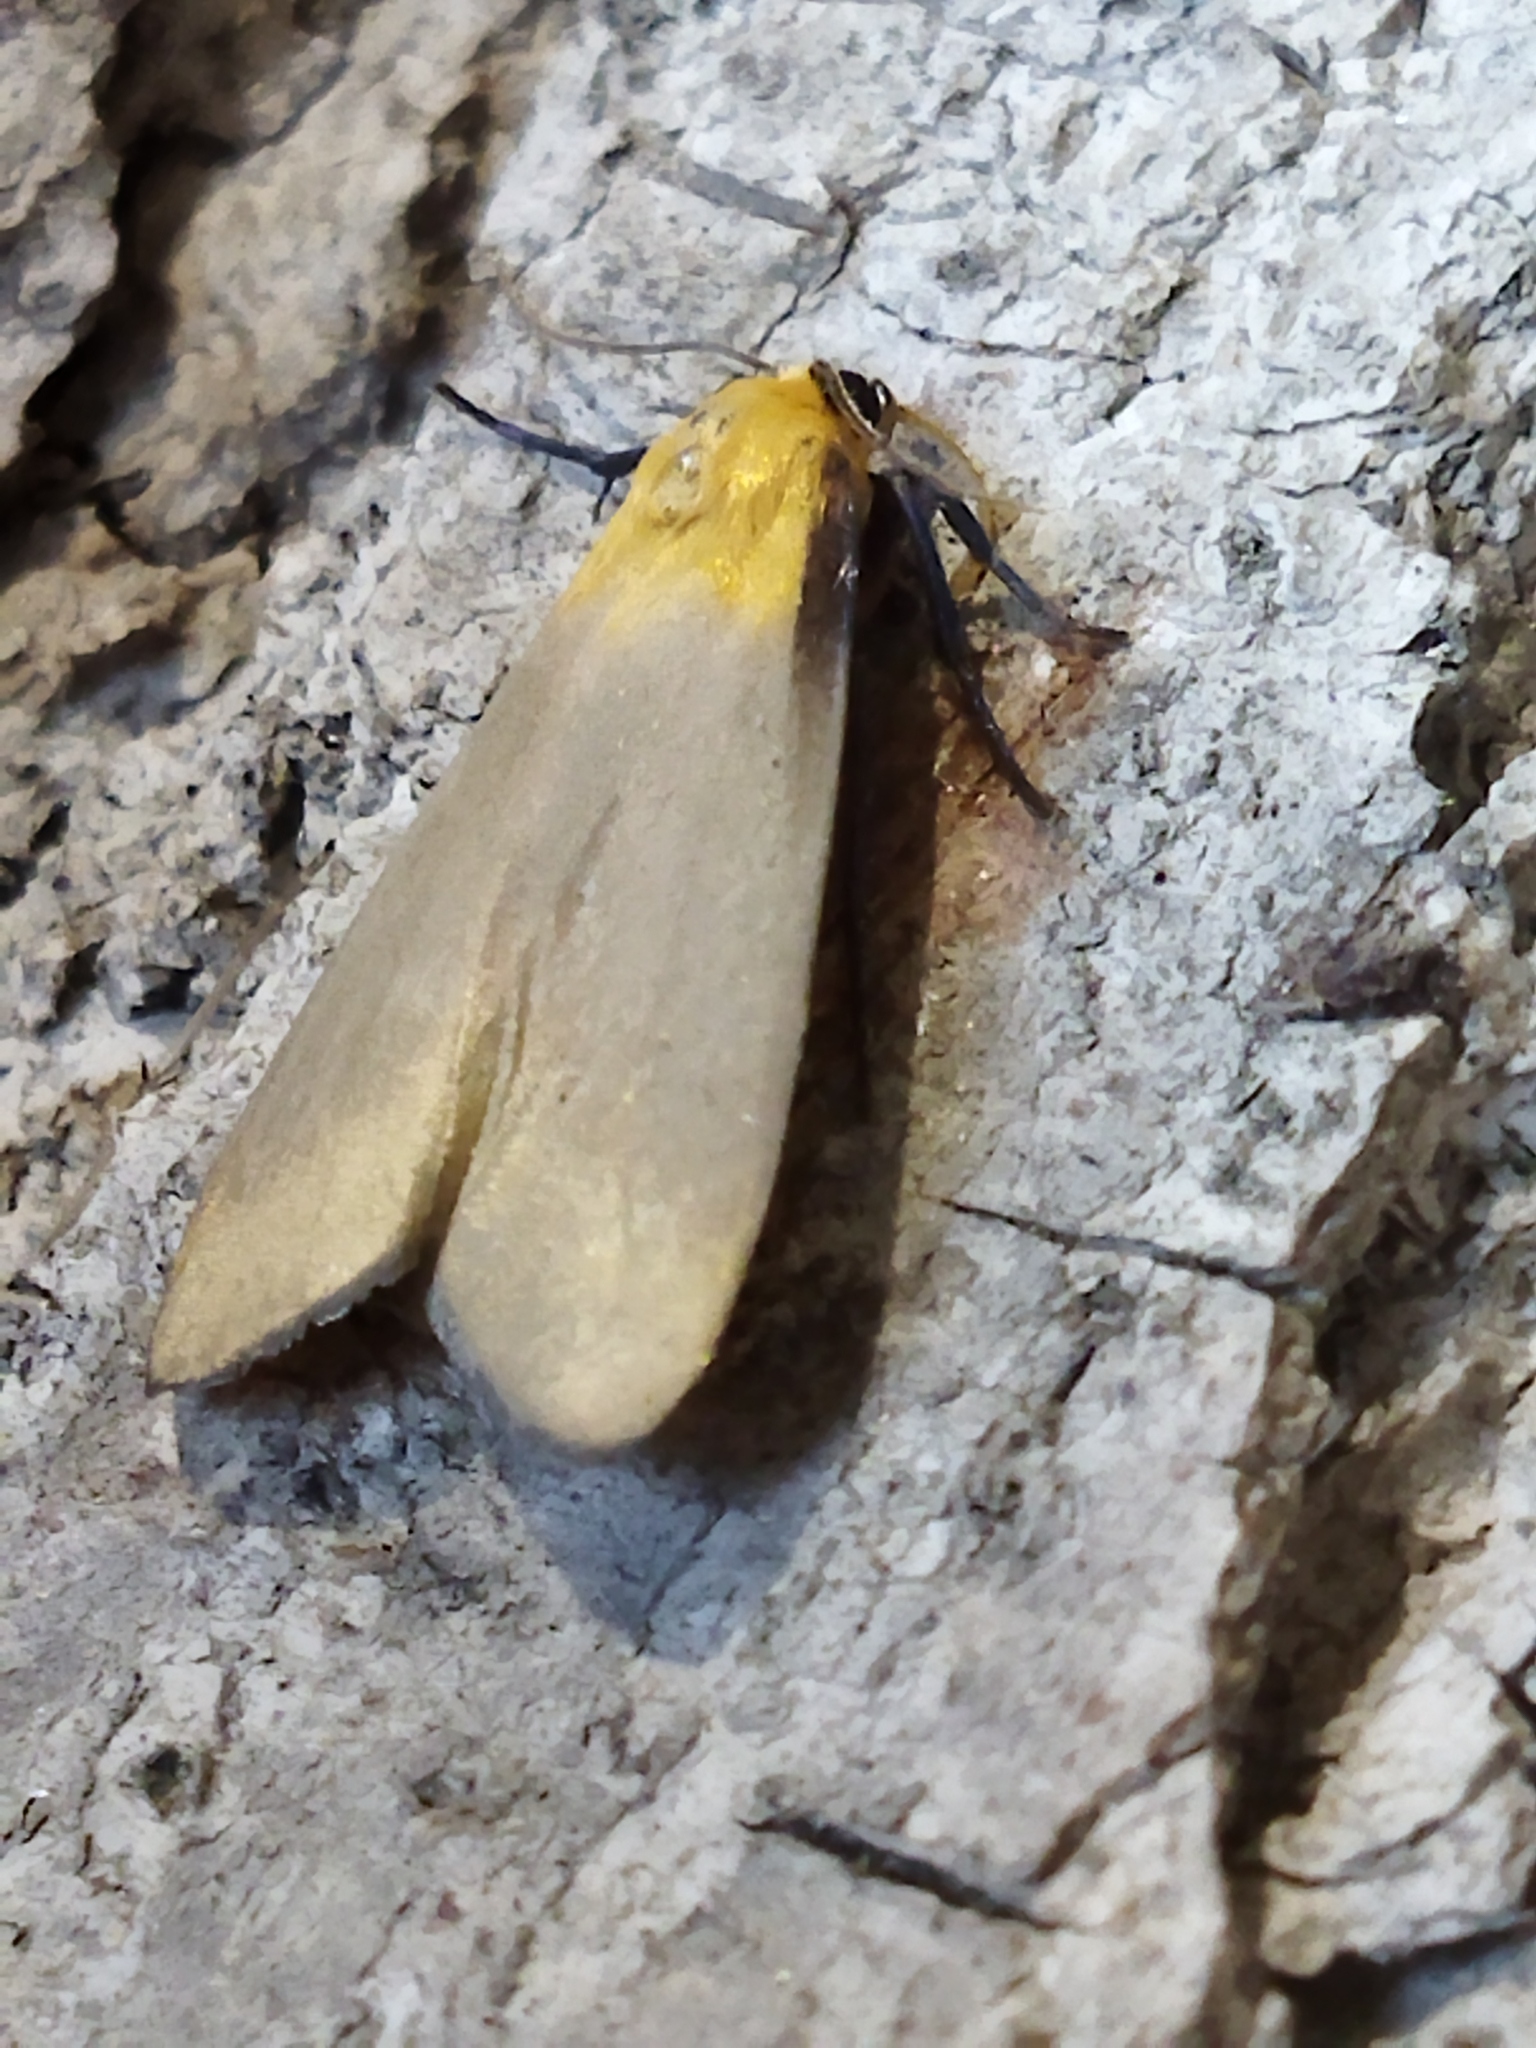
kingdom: Animalia
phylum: Arthropoda
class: Insecta
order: Lepidoptera
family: Erebidae
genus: Lithosia
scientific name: Lithosia quadra
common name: Four-spotted footman
